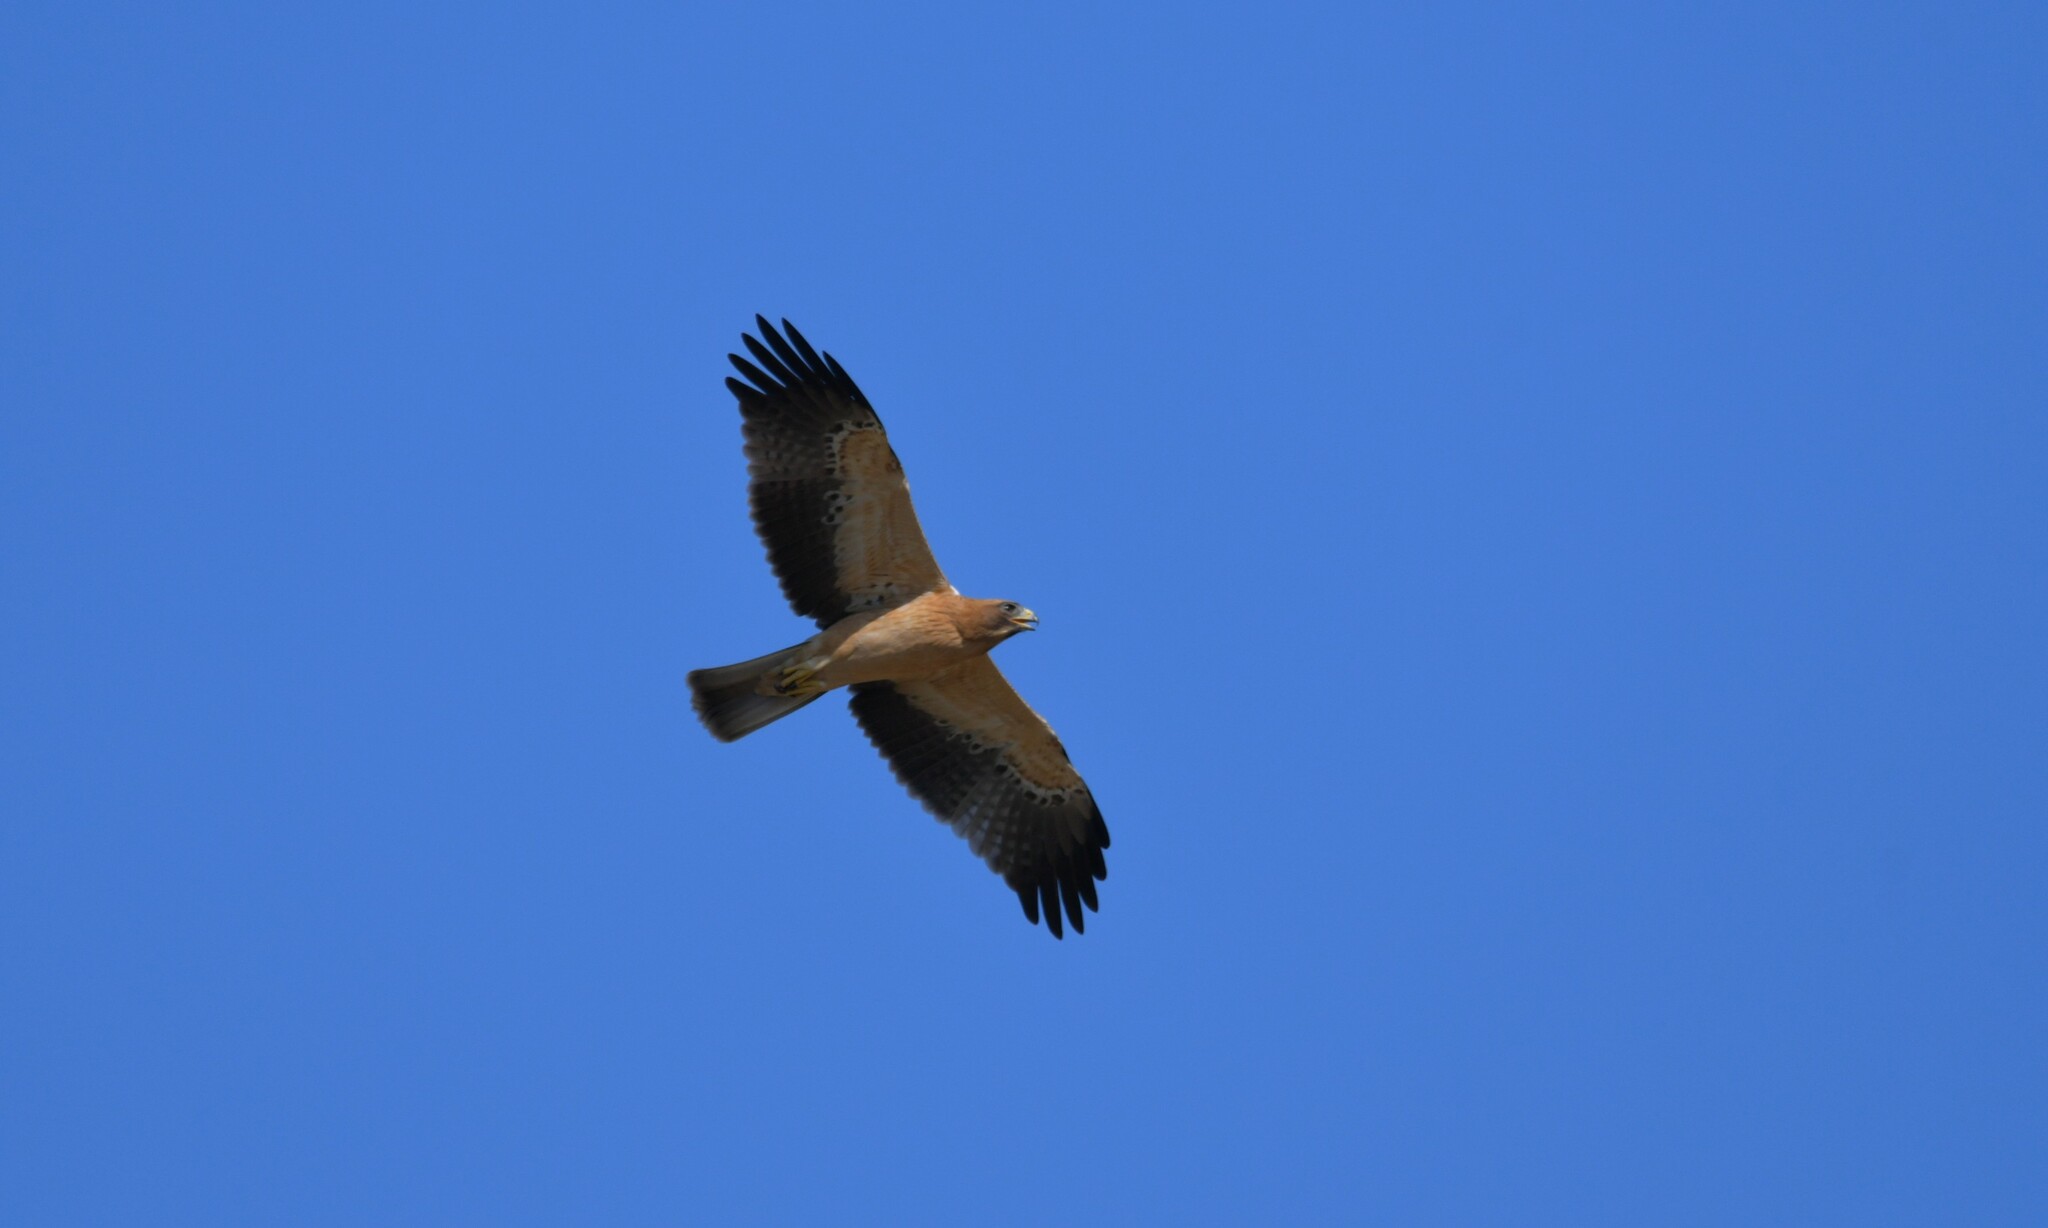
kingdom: Animalia
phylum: Chordata
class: Aves
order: Accipitriformes
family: Accipitridae
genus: Hieraaetus
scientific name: Hieraaetus pennatus
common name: Booted eagle
